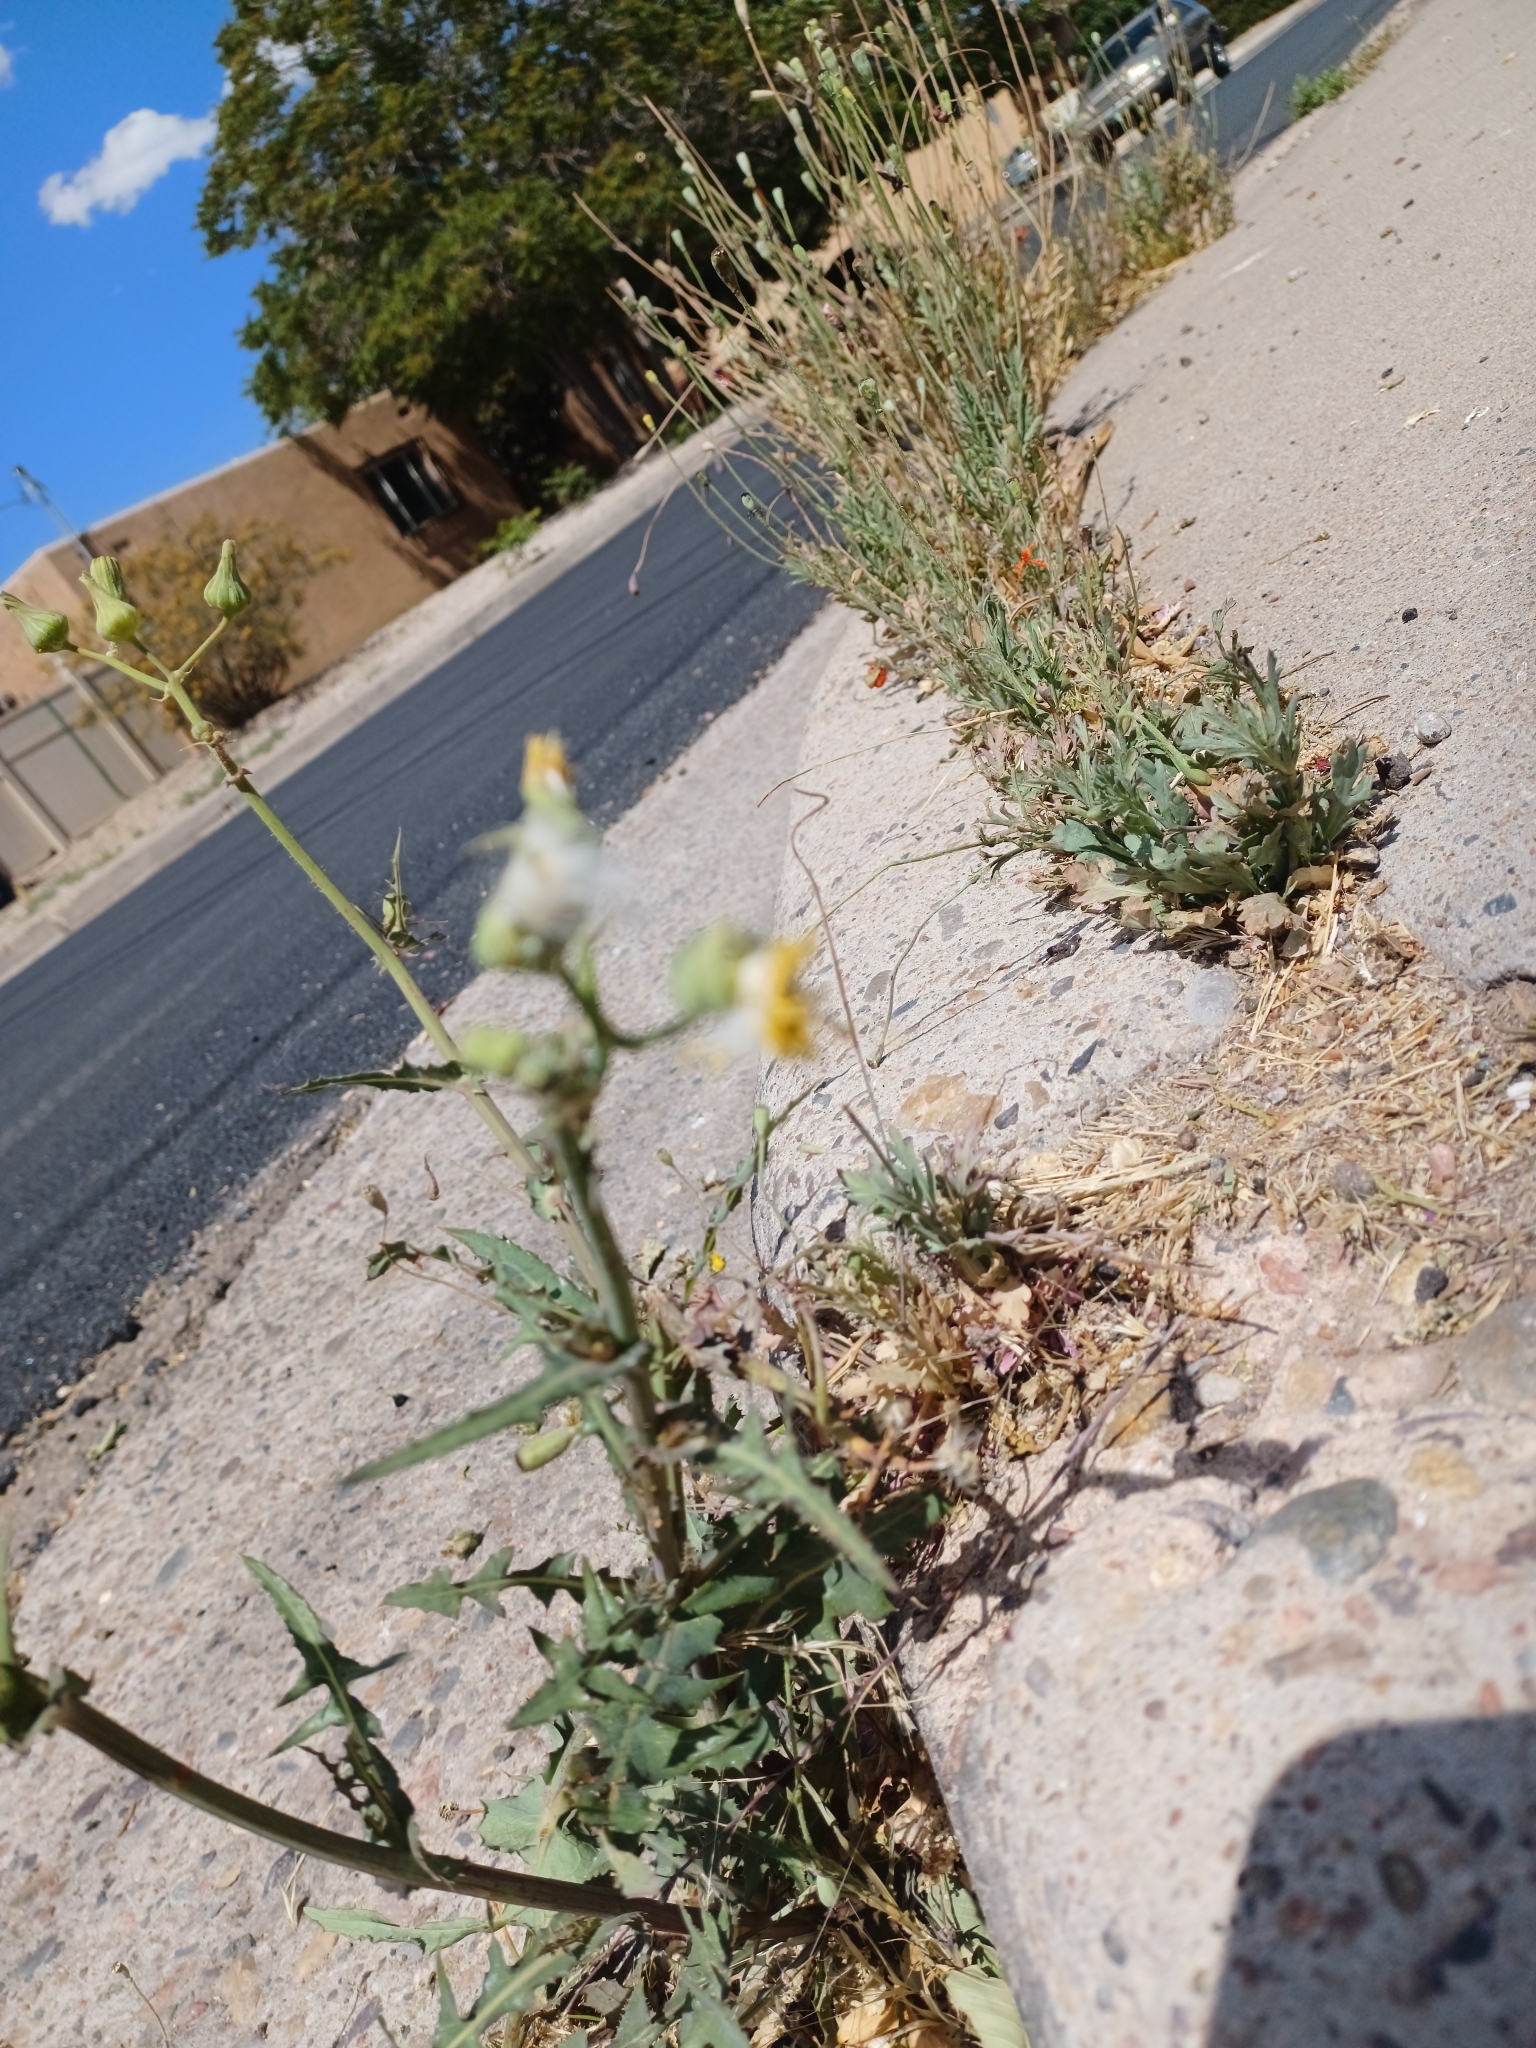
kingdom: Plantae
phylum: Tracheophyta
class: Magnoliopsida
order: Asterales
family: Asteraceae
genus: Sonchus
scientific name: Sonchus oleraceus
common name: Common sowthistle
